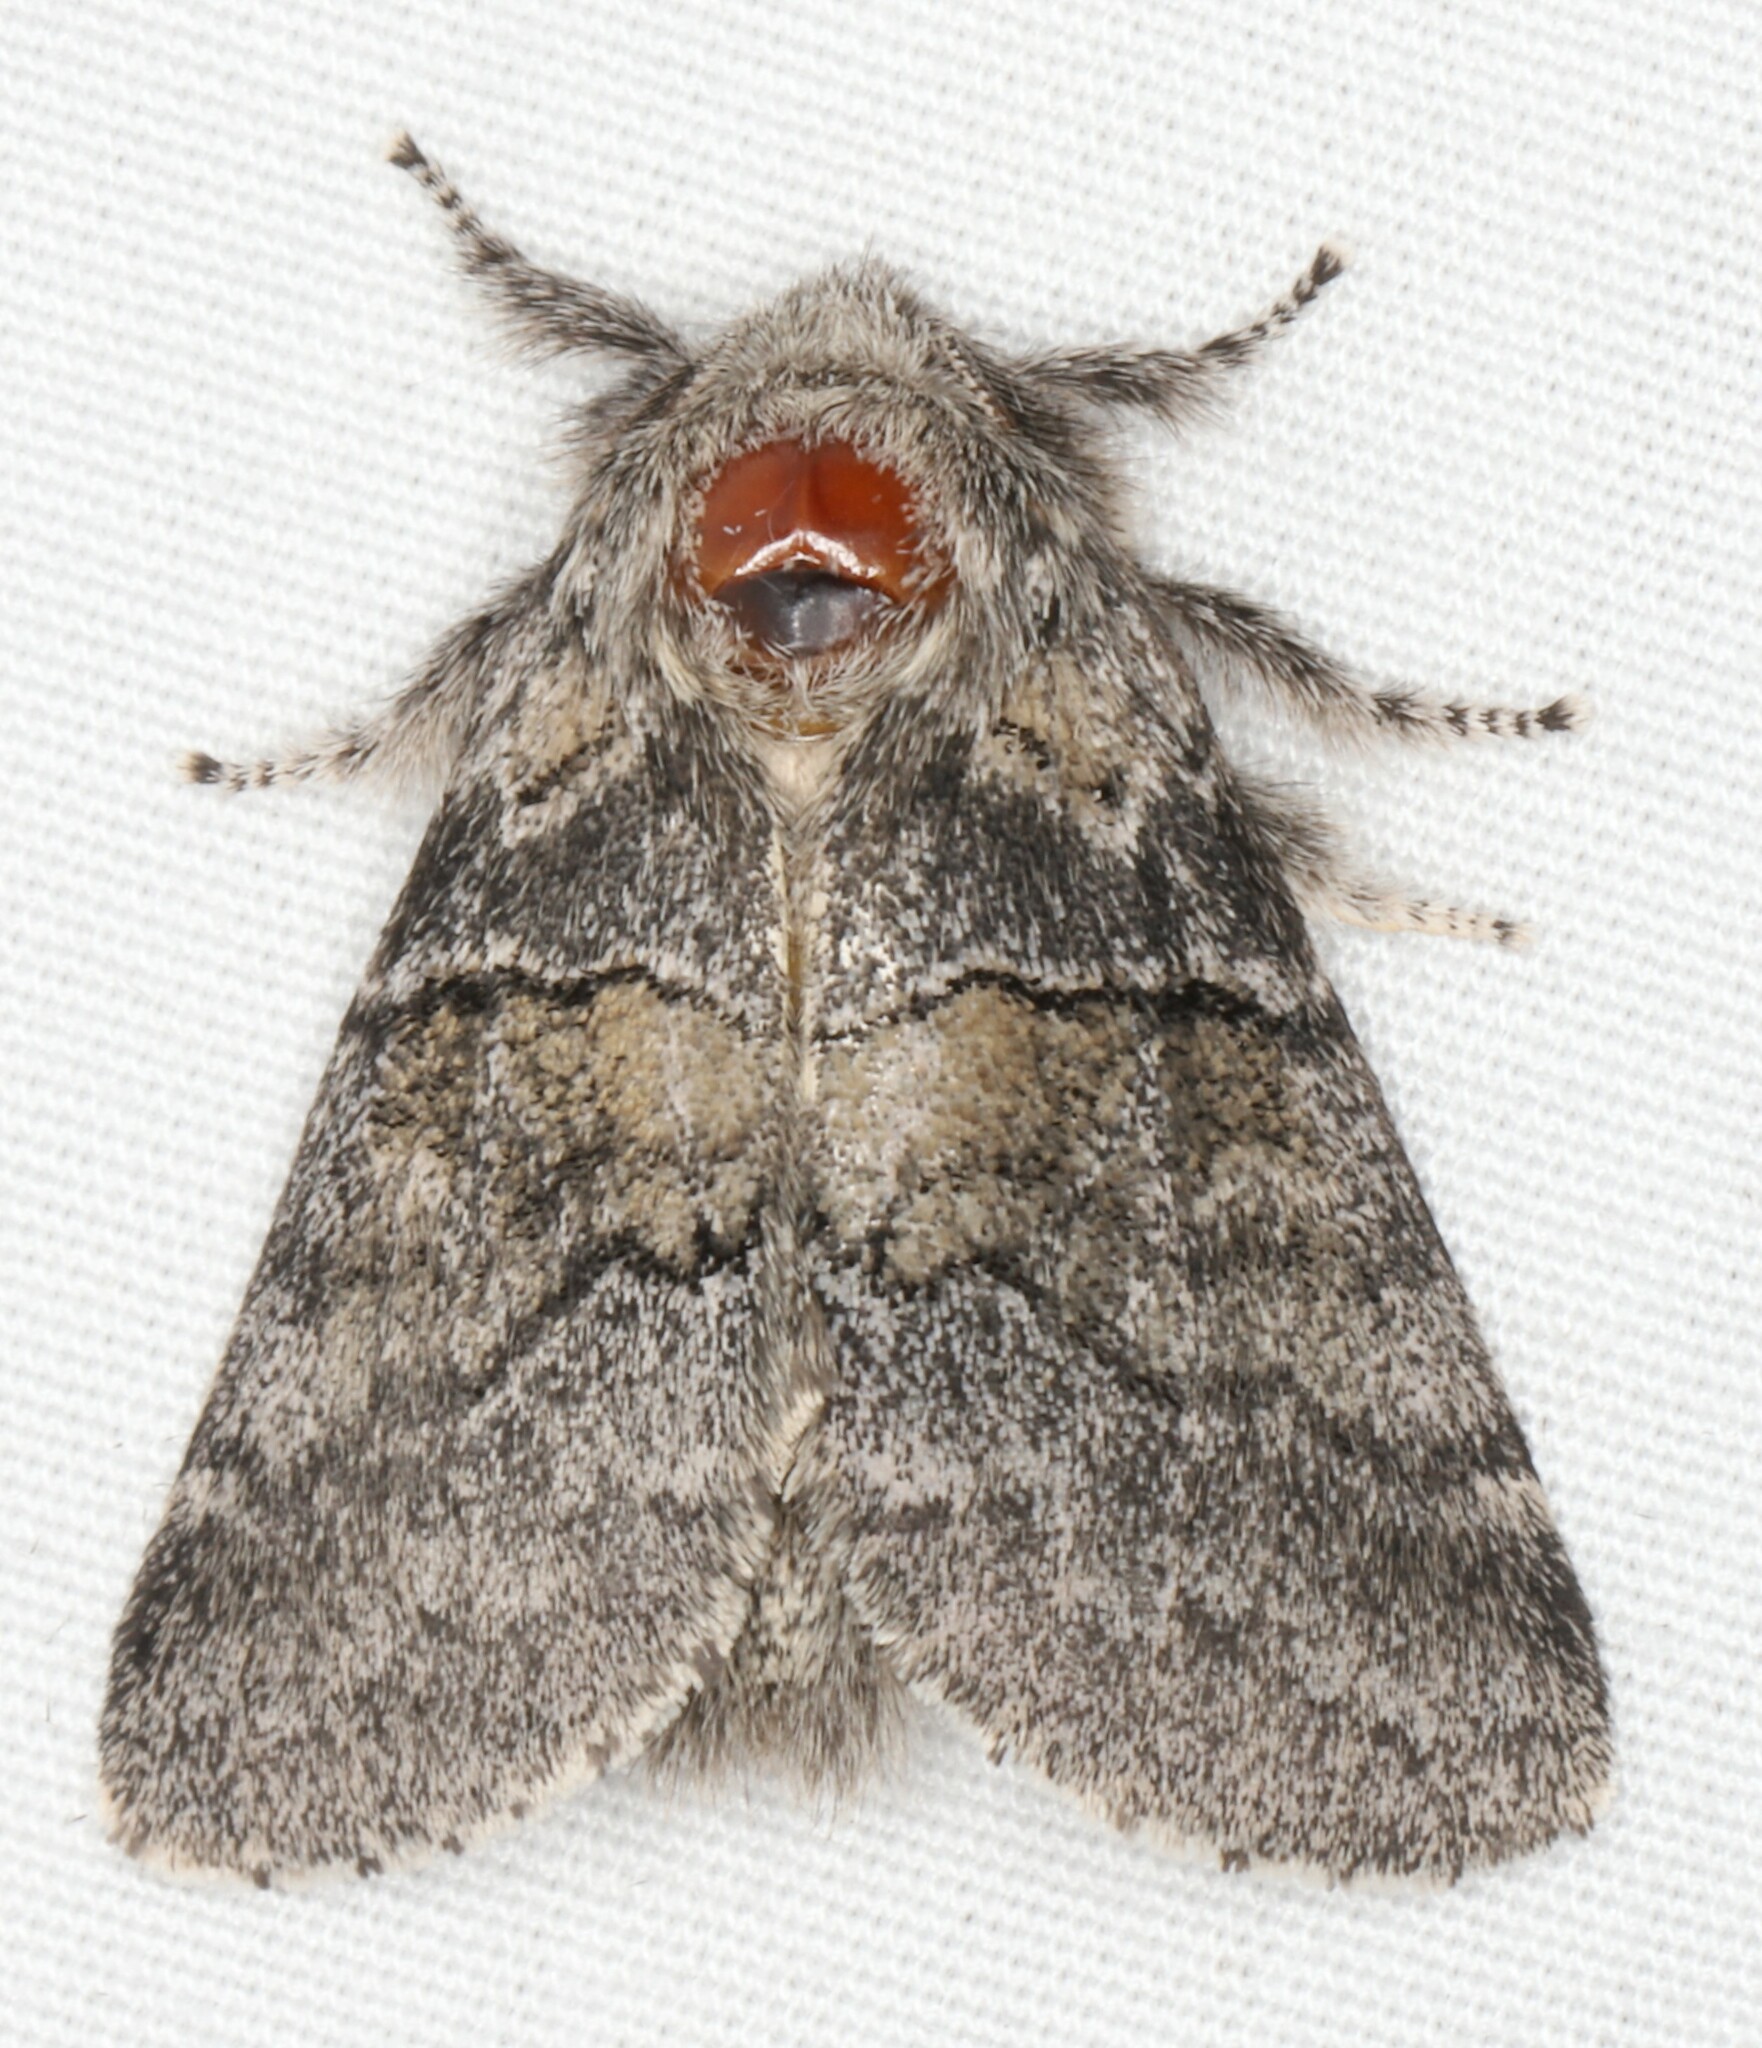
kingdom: Animalia
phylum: Arthropoda
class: Insecta
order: Lepidoptera
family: Notodontidae
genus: Gluphisia
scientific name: Gluphisia septentrionis
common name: Common gluphisia
